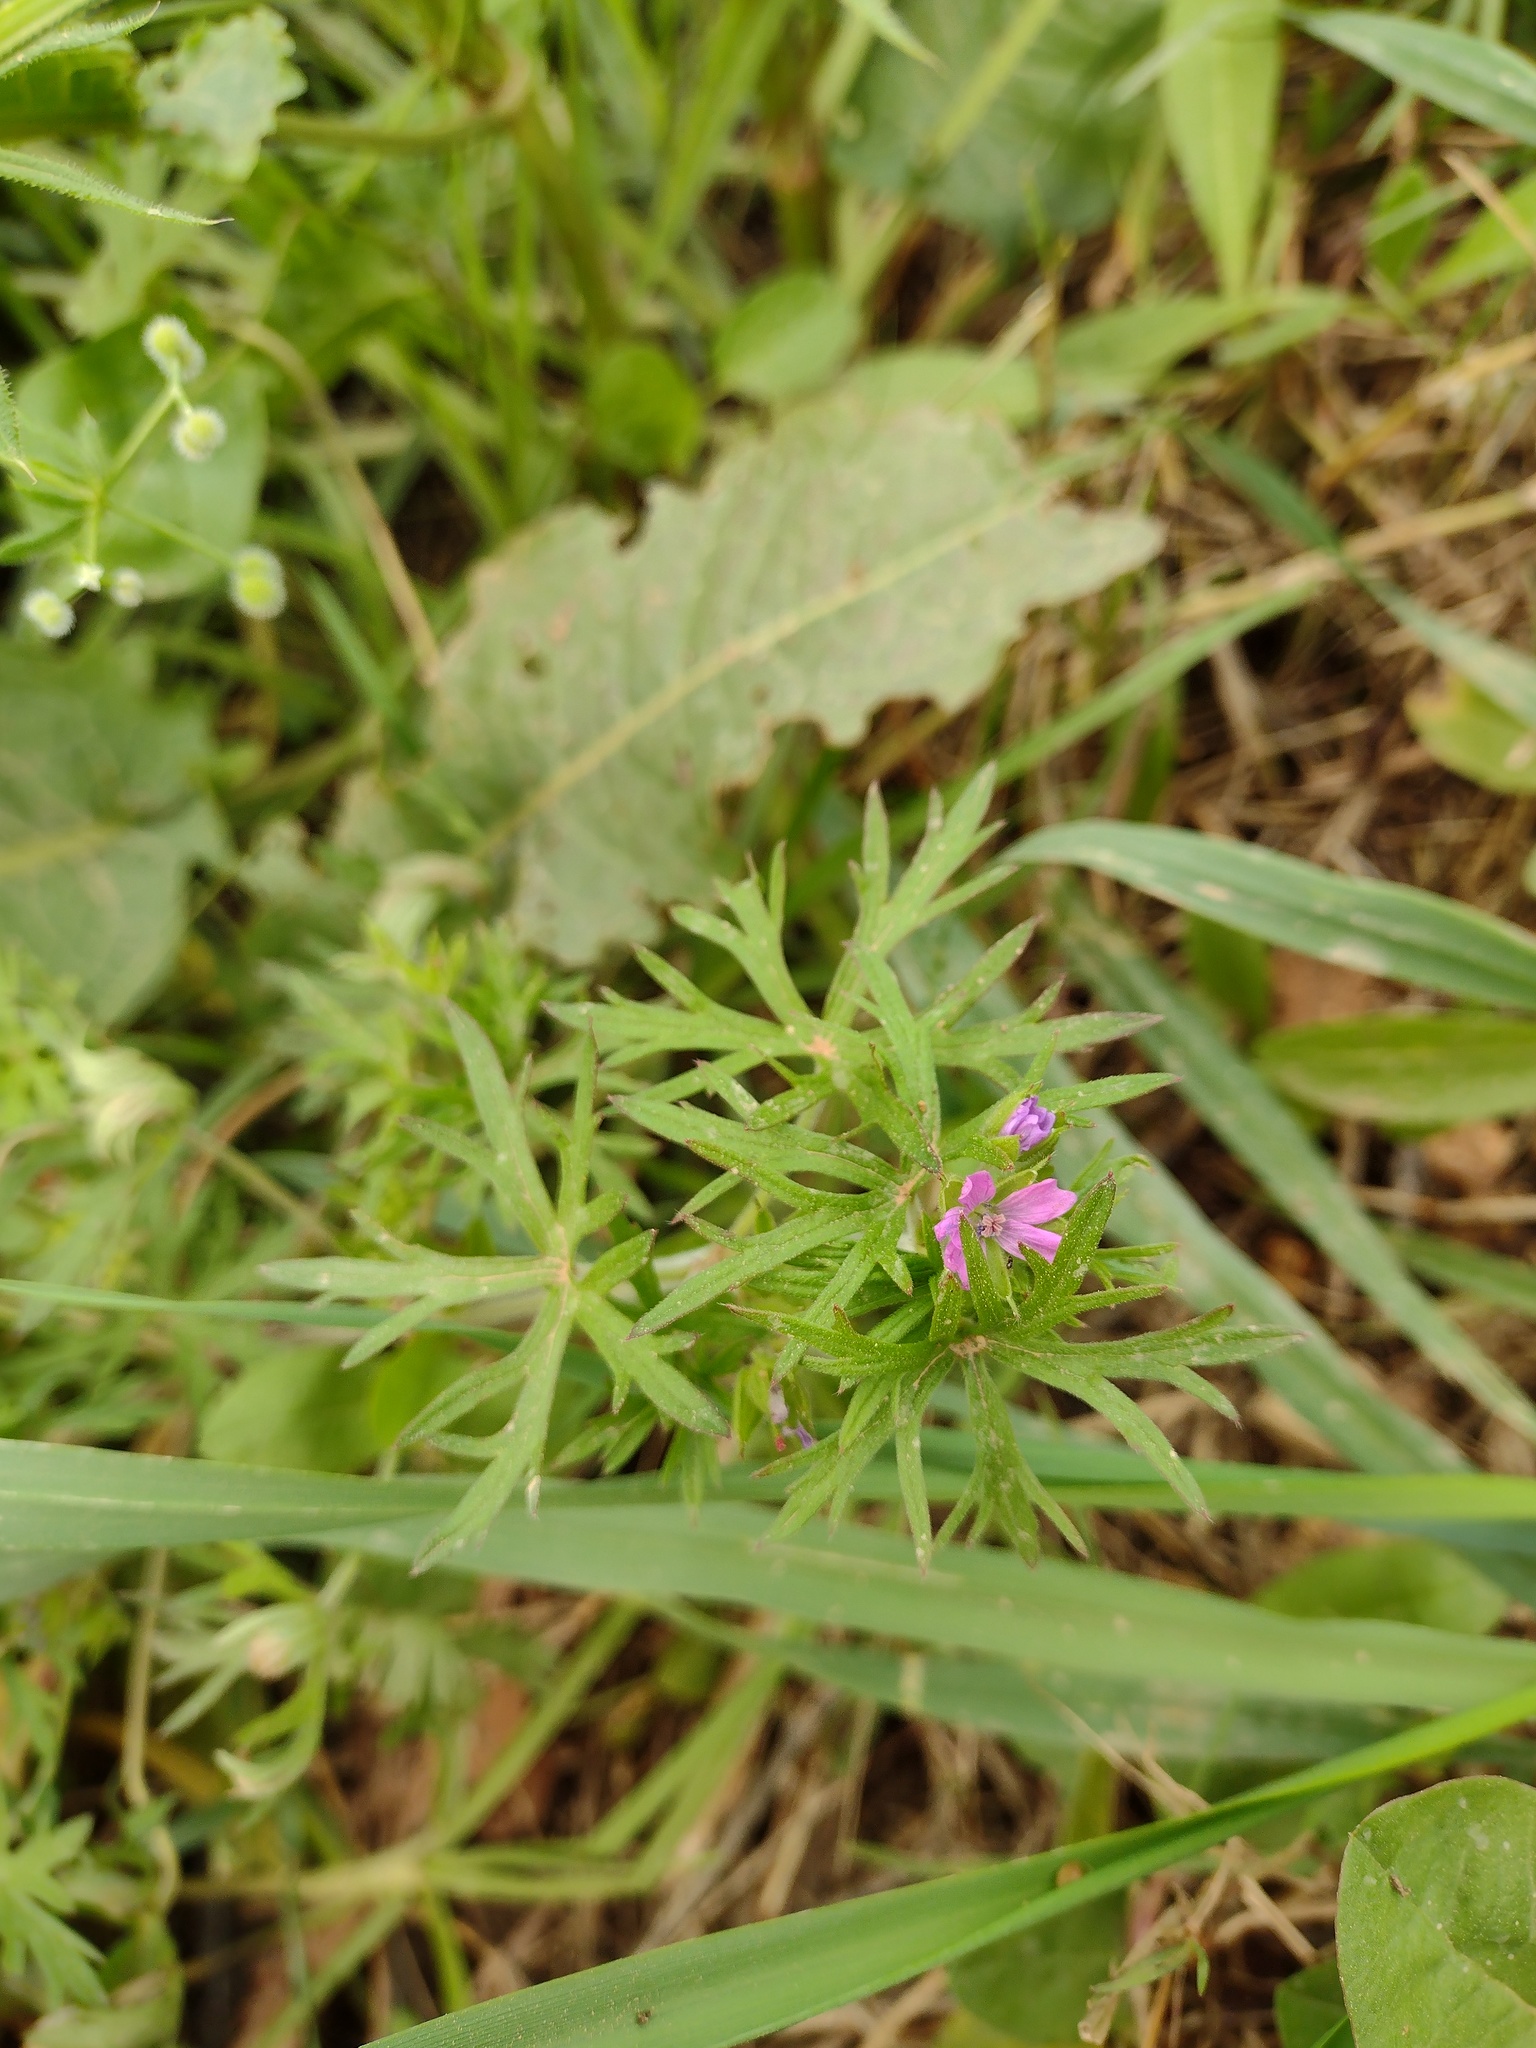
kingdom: Plantae
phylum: Tracheophyta
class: Magnoliopsida
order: Geraniales
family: Geraniaceae
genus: Geranium
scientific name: Geranium dissectum
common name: Cut-leaved crane's-bill
